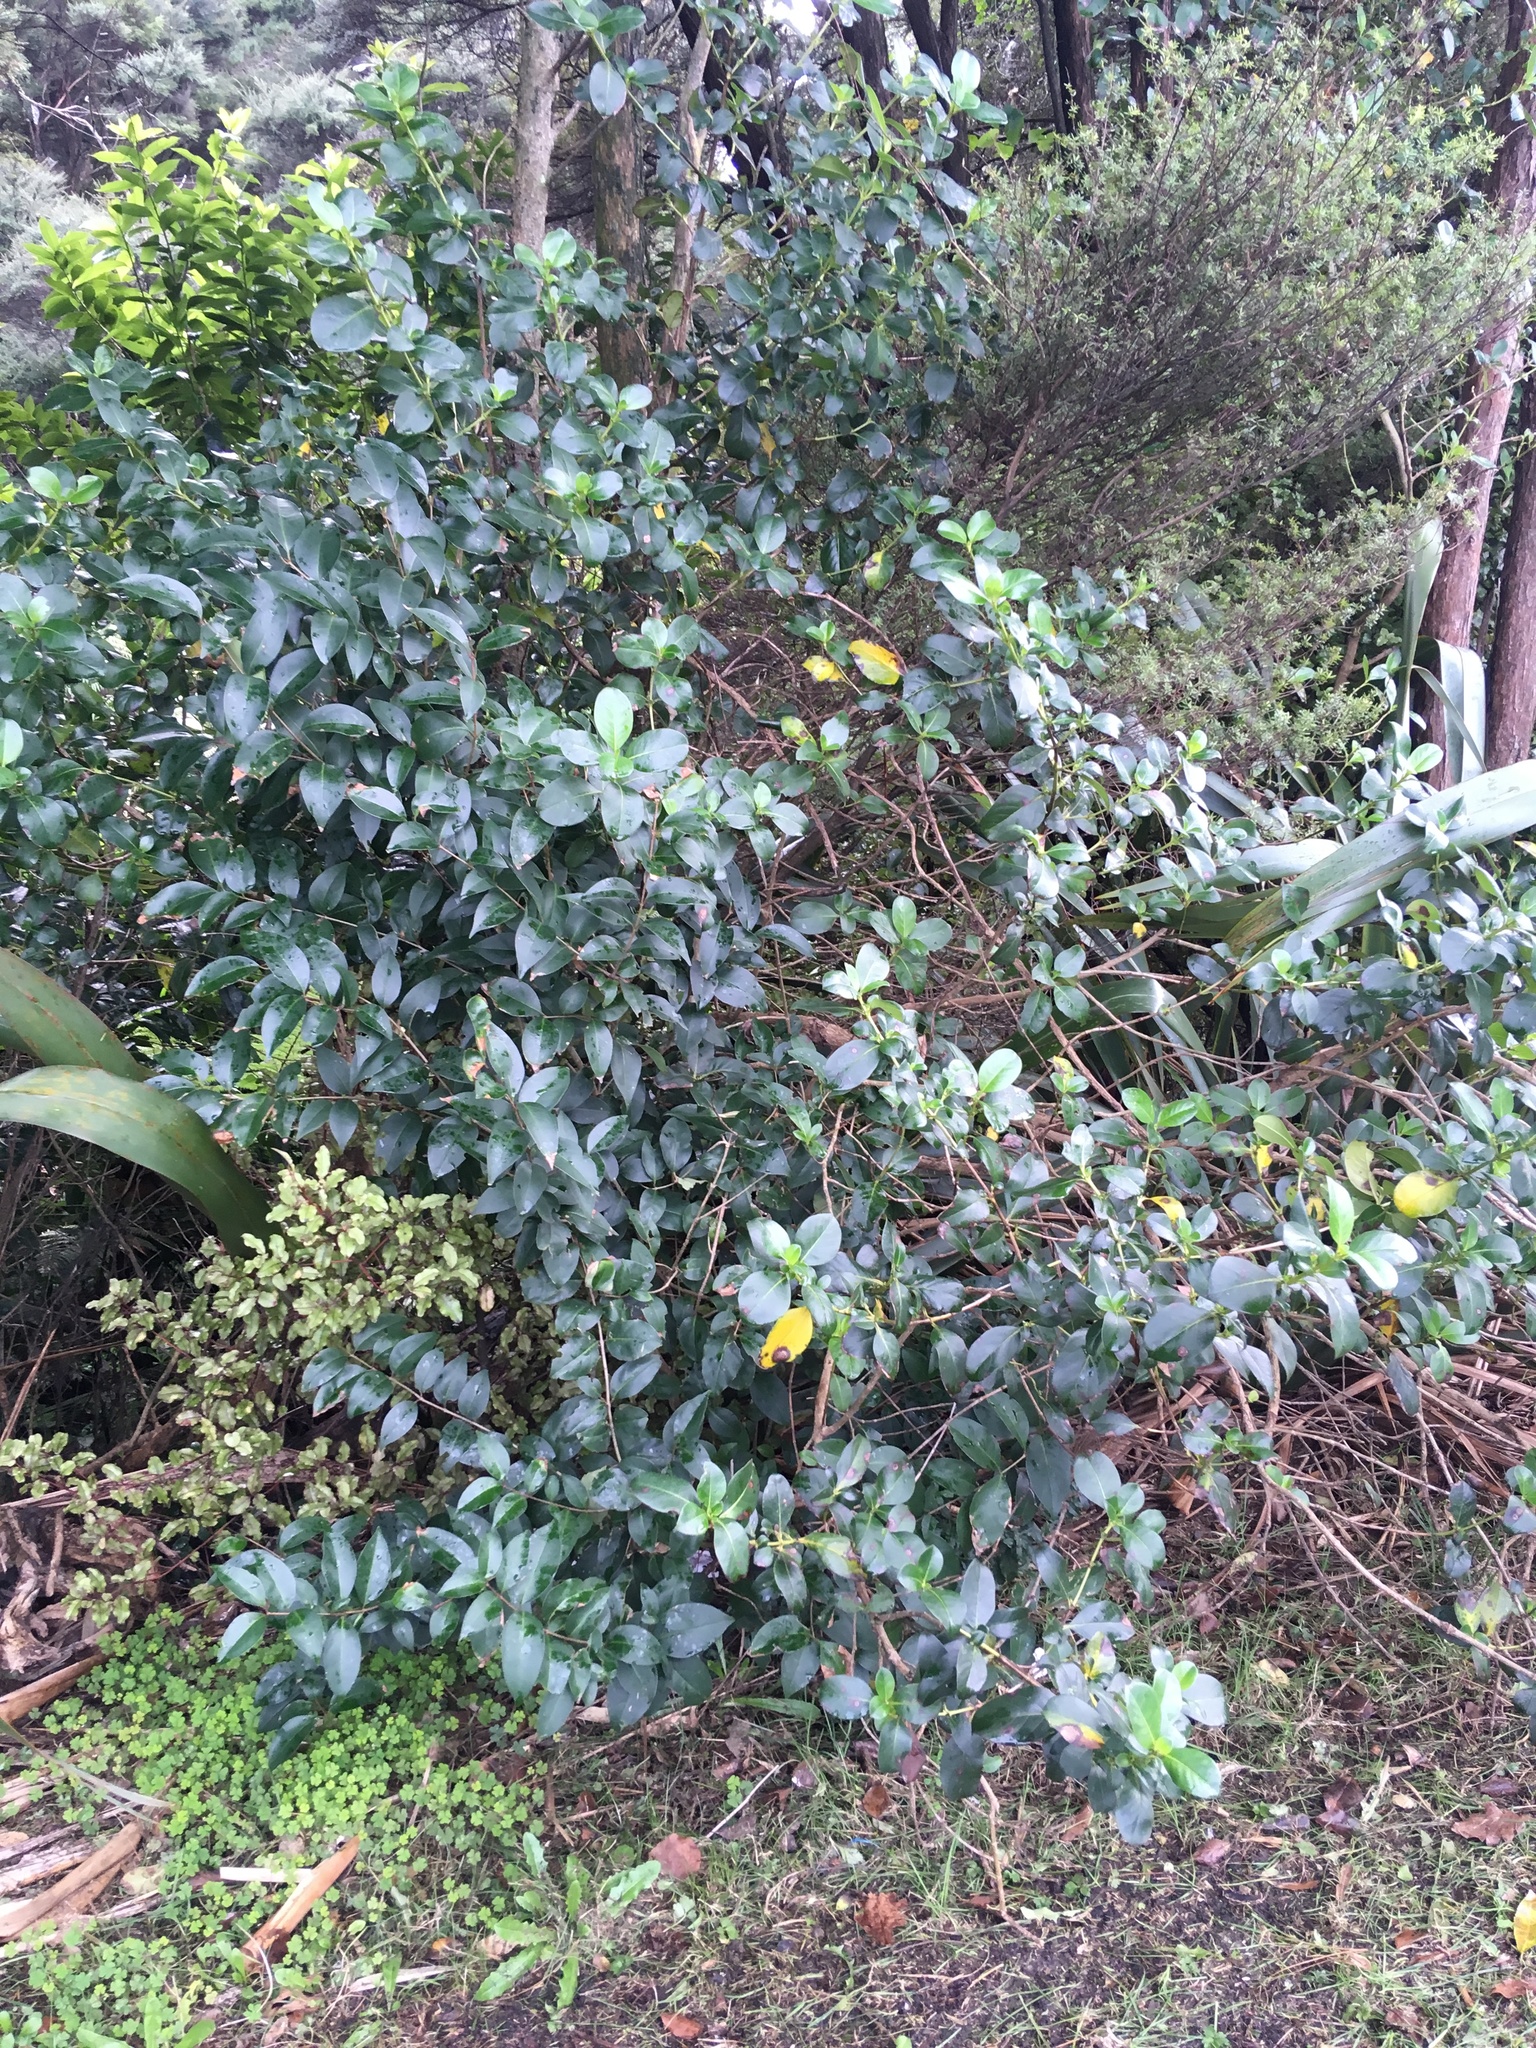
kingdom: Plantae
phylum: Tracheophyta
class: Magnoliopsida
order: Lamiales
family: Oleaceae
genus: Ligustrum
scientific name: Ligustrum lucidum
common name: Glossy privet
